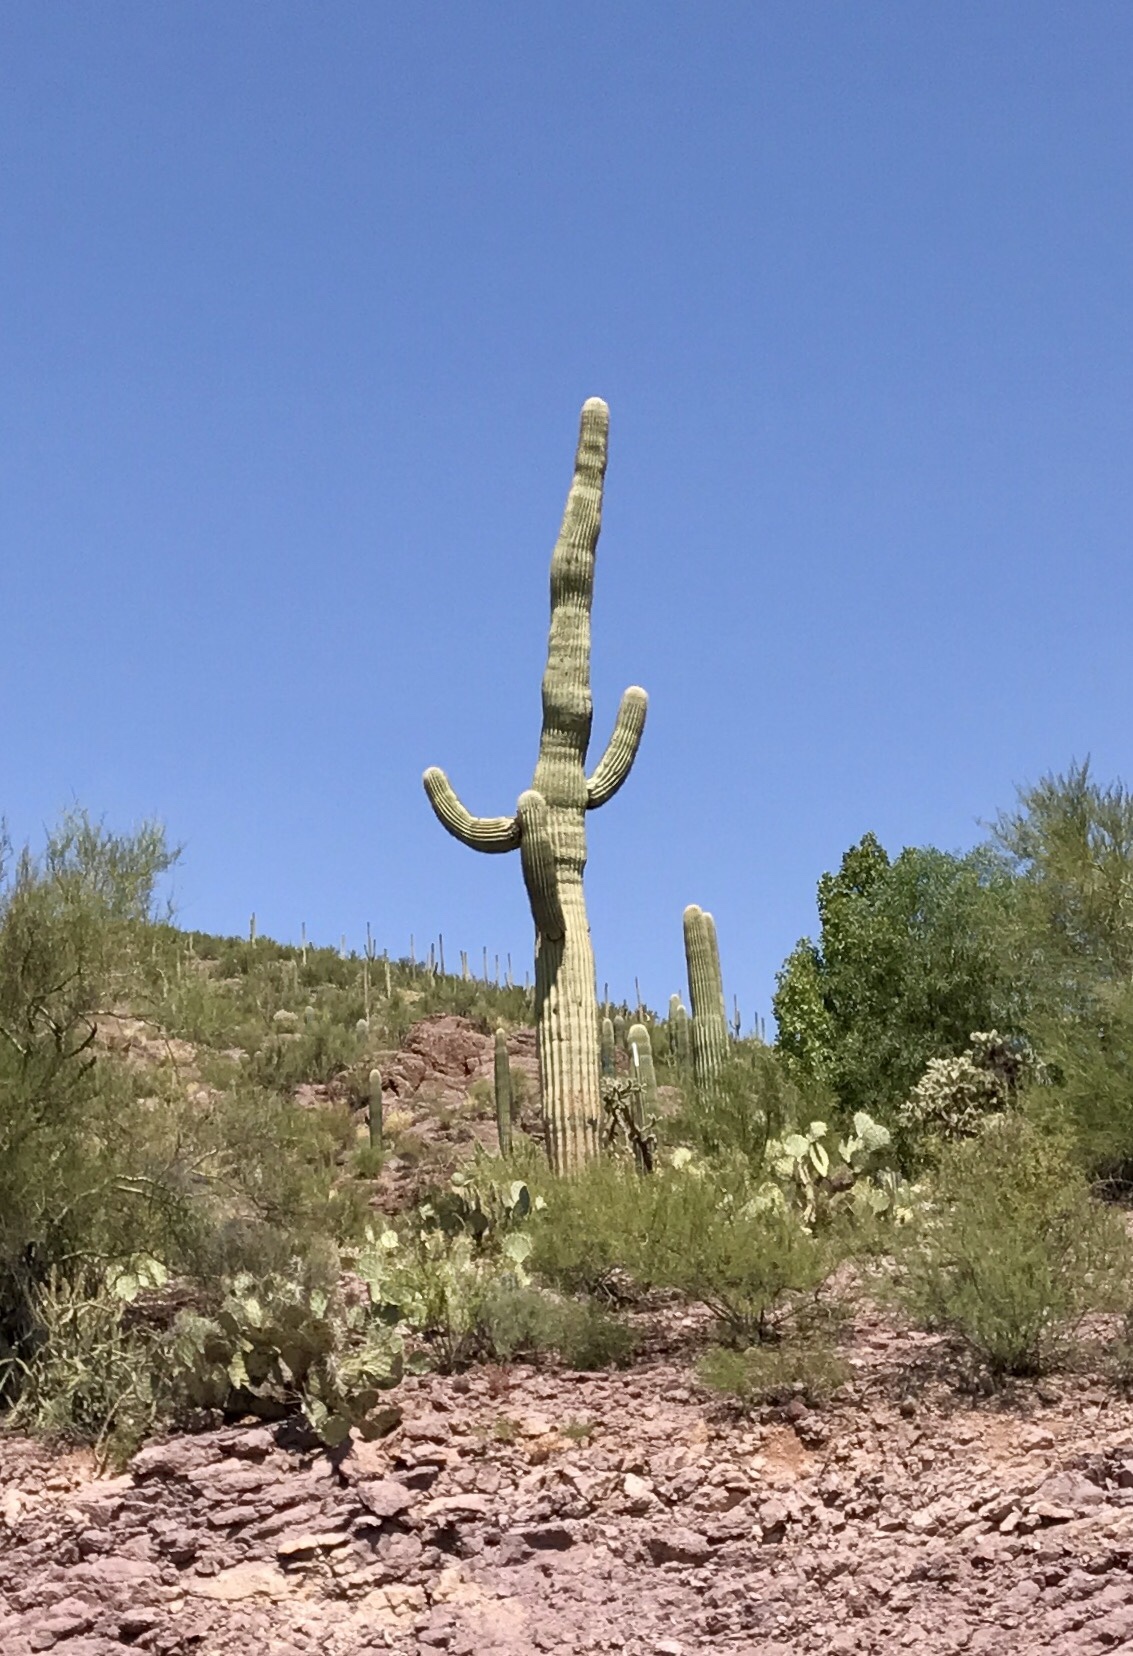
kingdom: Plantae
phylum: Tracheophyta
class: Magnoliopsida
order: Caryophyllales
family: Cactaceae
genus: Carnegiea
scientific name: Carnegiea gigantea
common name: Saguaro
